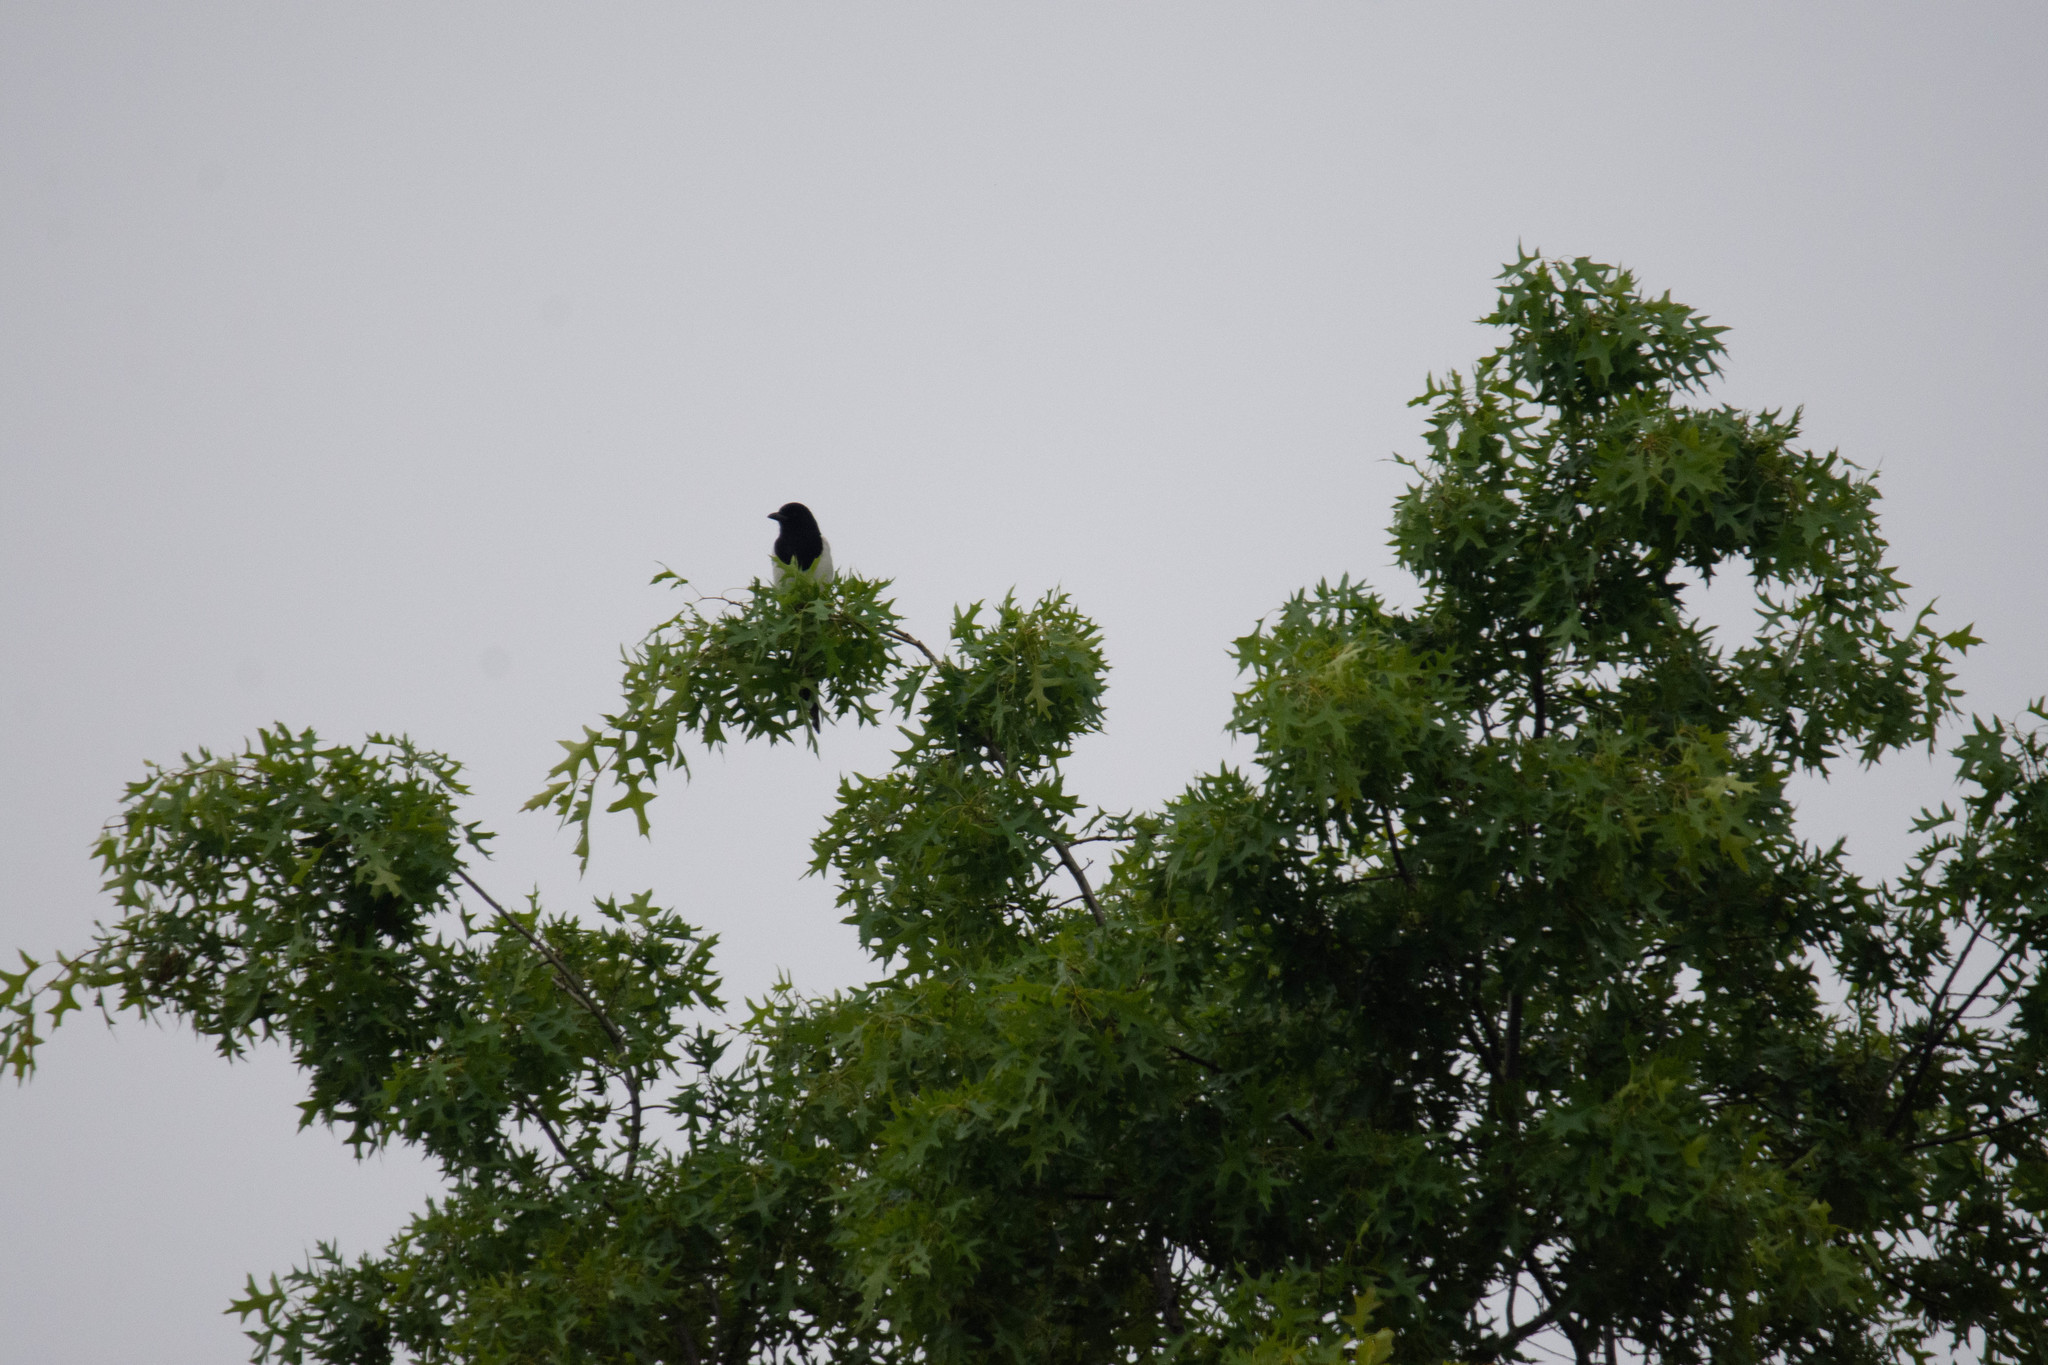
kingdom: Animalia
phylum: Chordata
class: Aves
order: Passeriformes
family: Corvidae
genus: Pica
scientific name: Pica pica
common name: Eurasian magpie
